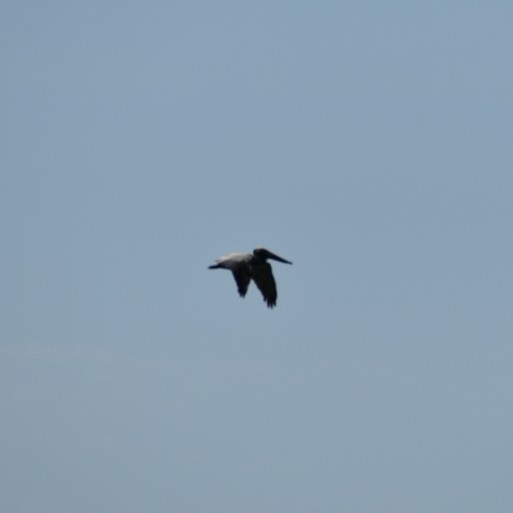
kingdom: Animalia
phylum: Chordata
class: Aves
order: Pelecaniformes
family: Pelecanidae
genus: Pelecanus
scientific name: Pelecanus occidentalis
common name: Brown pelican
